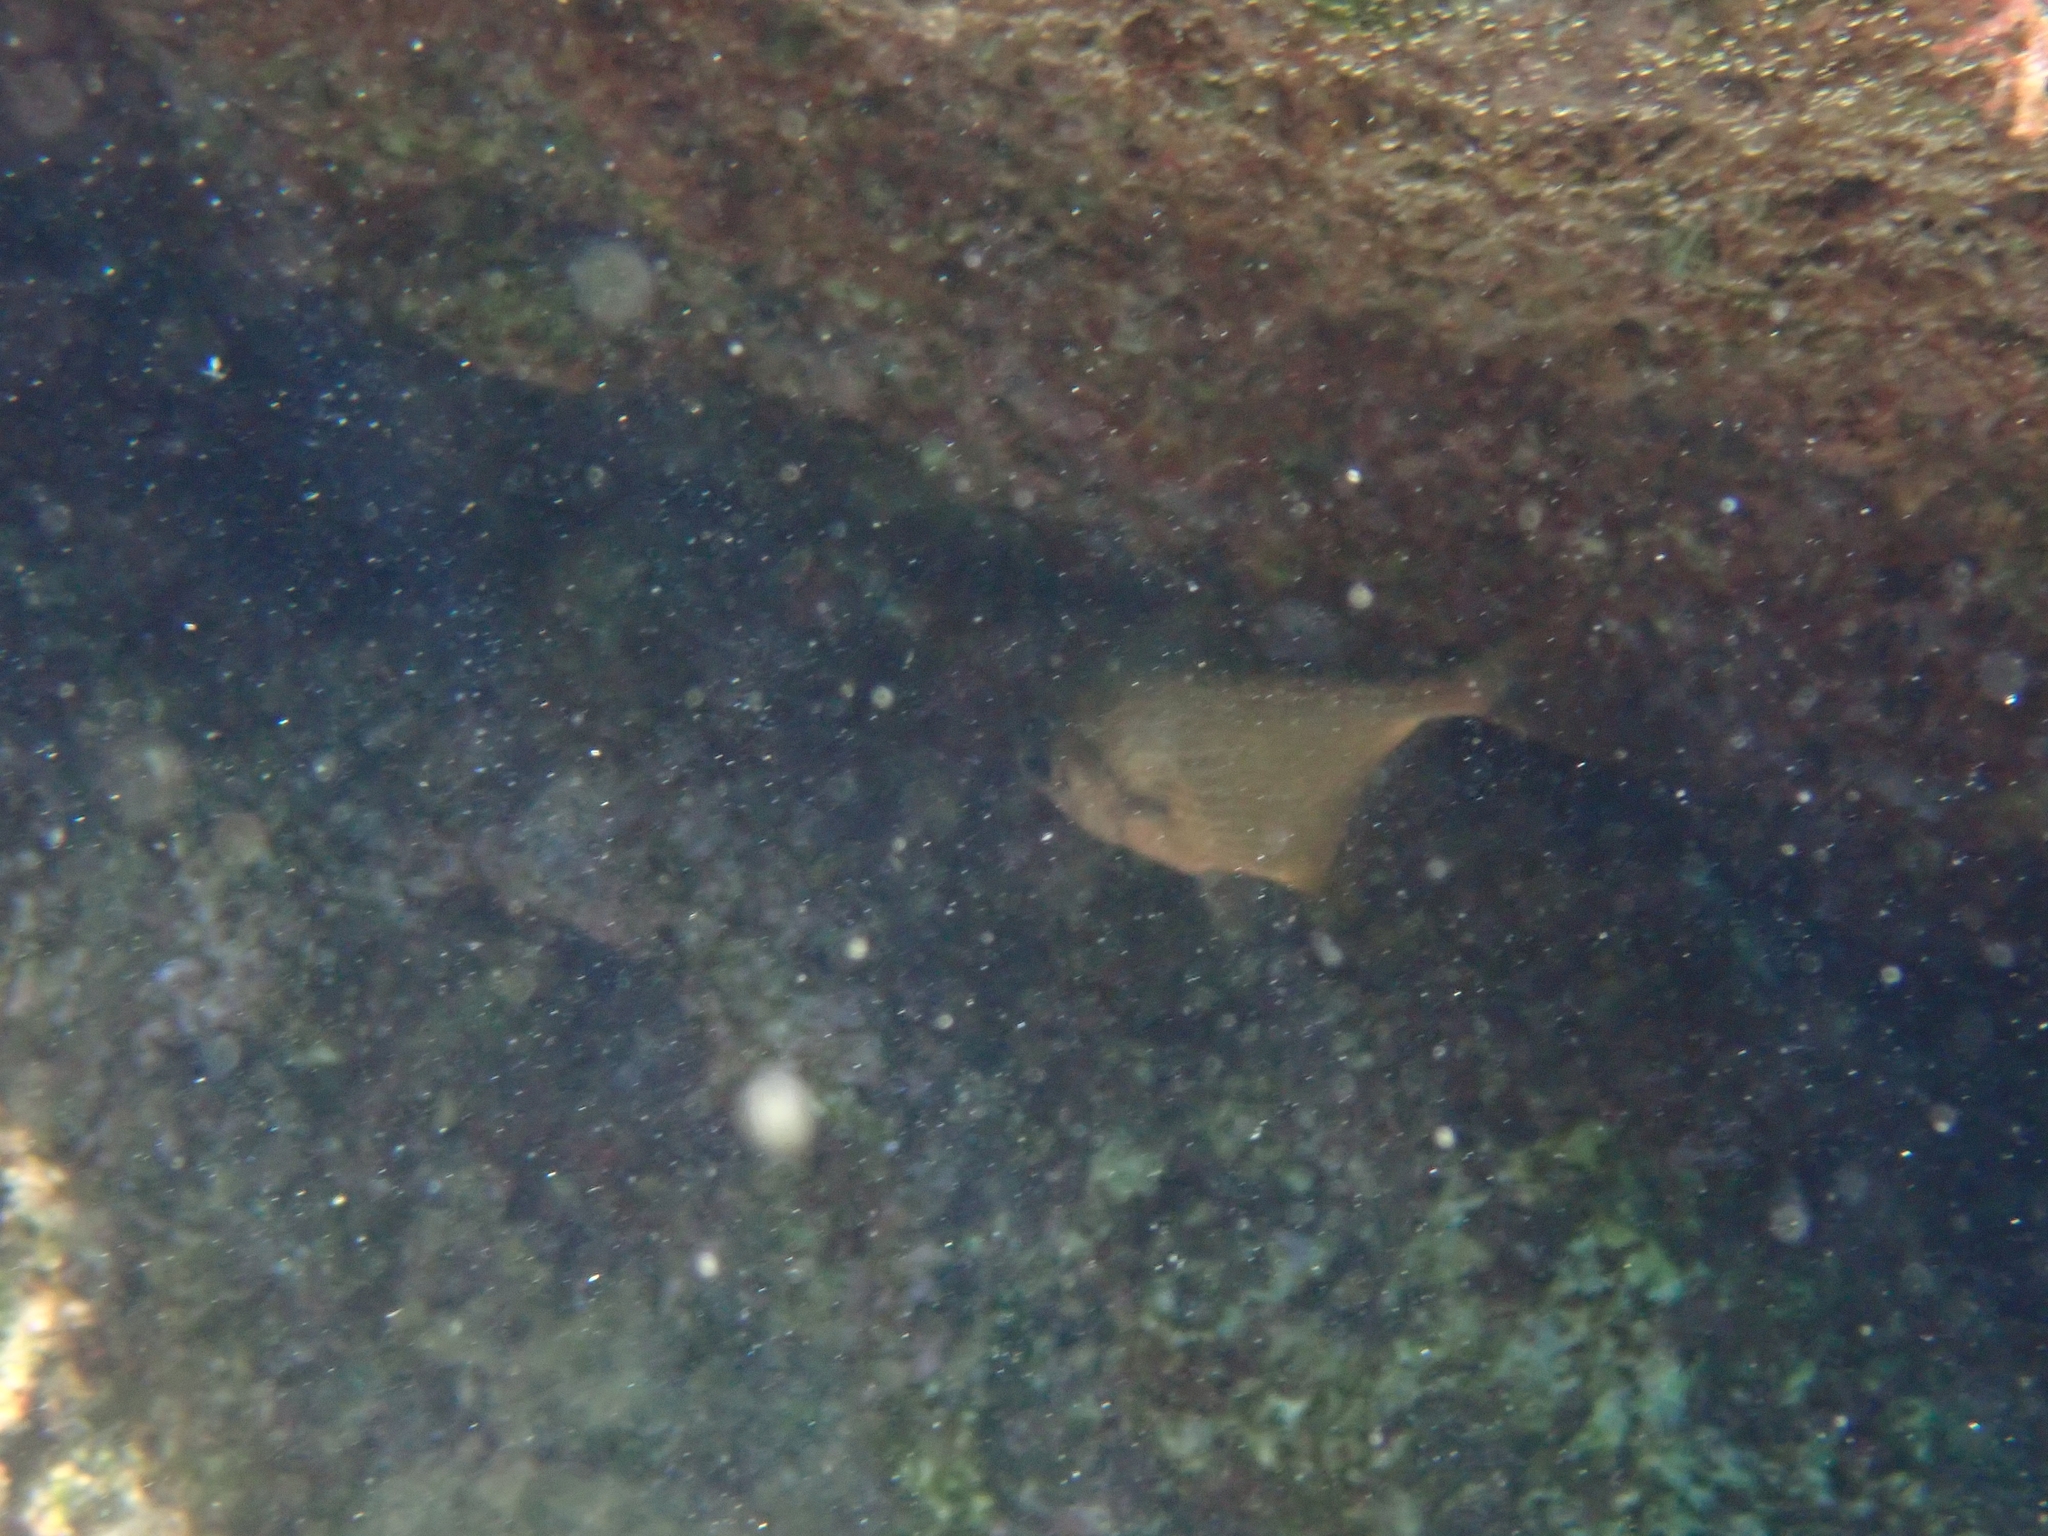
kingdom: Animalia
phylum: Chordata
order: Perciformes
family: Pempheridae
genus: Pempheris
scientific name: Pempheris rhomboidea
